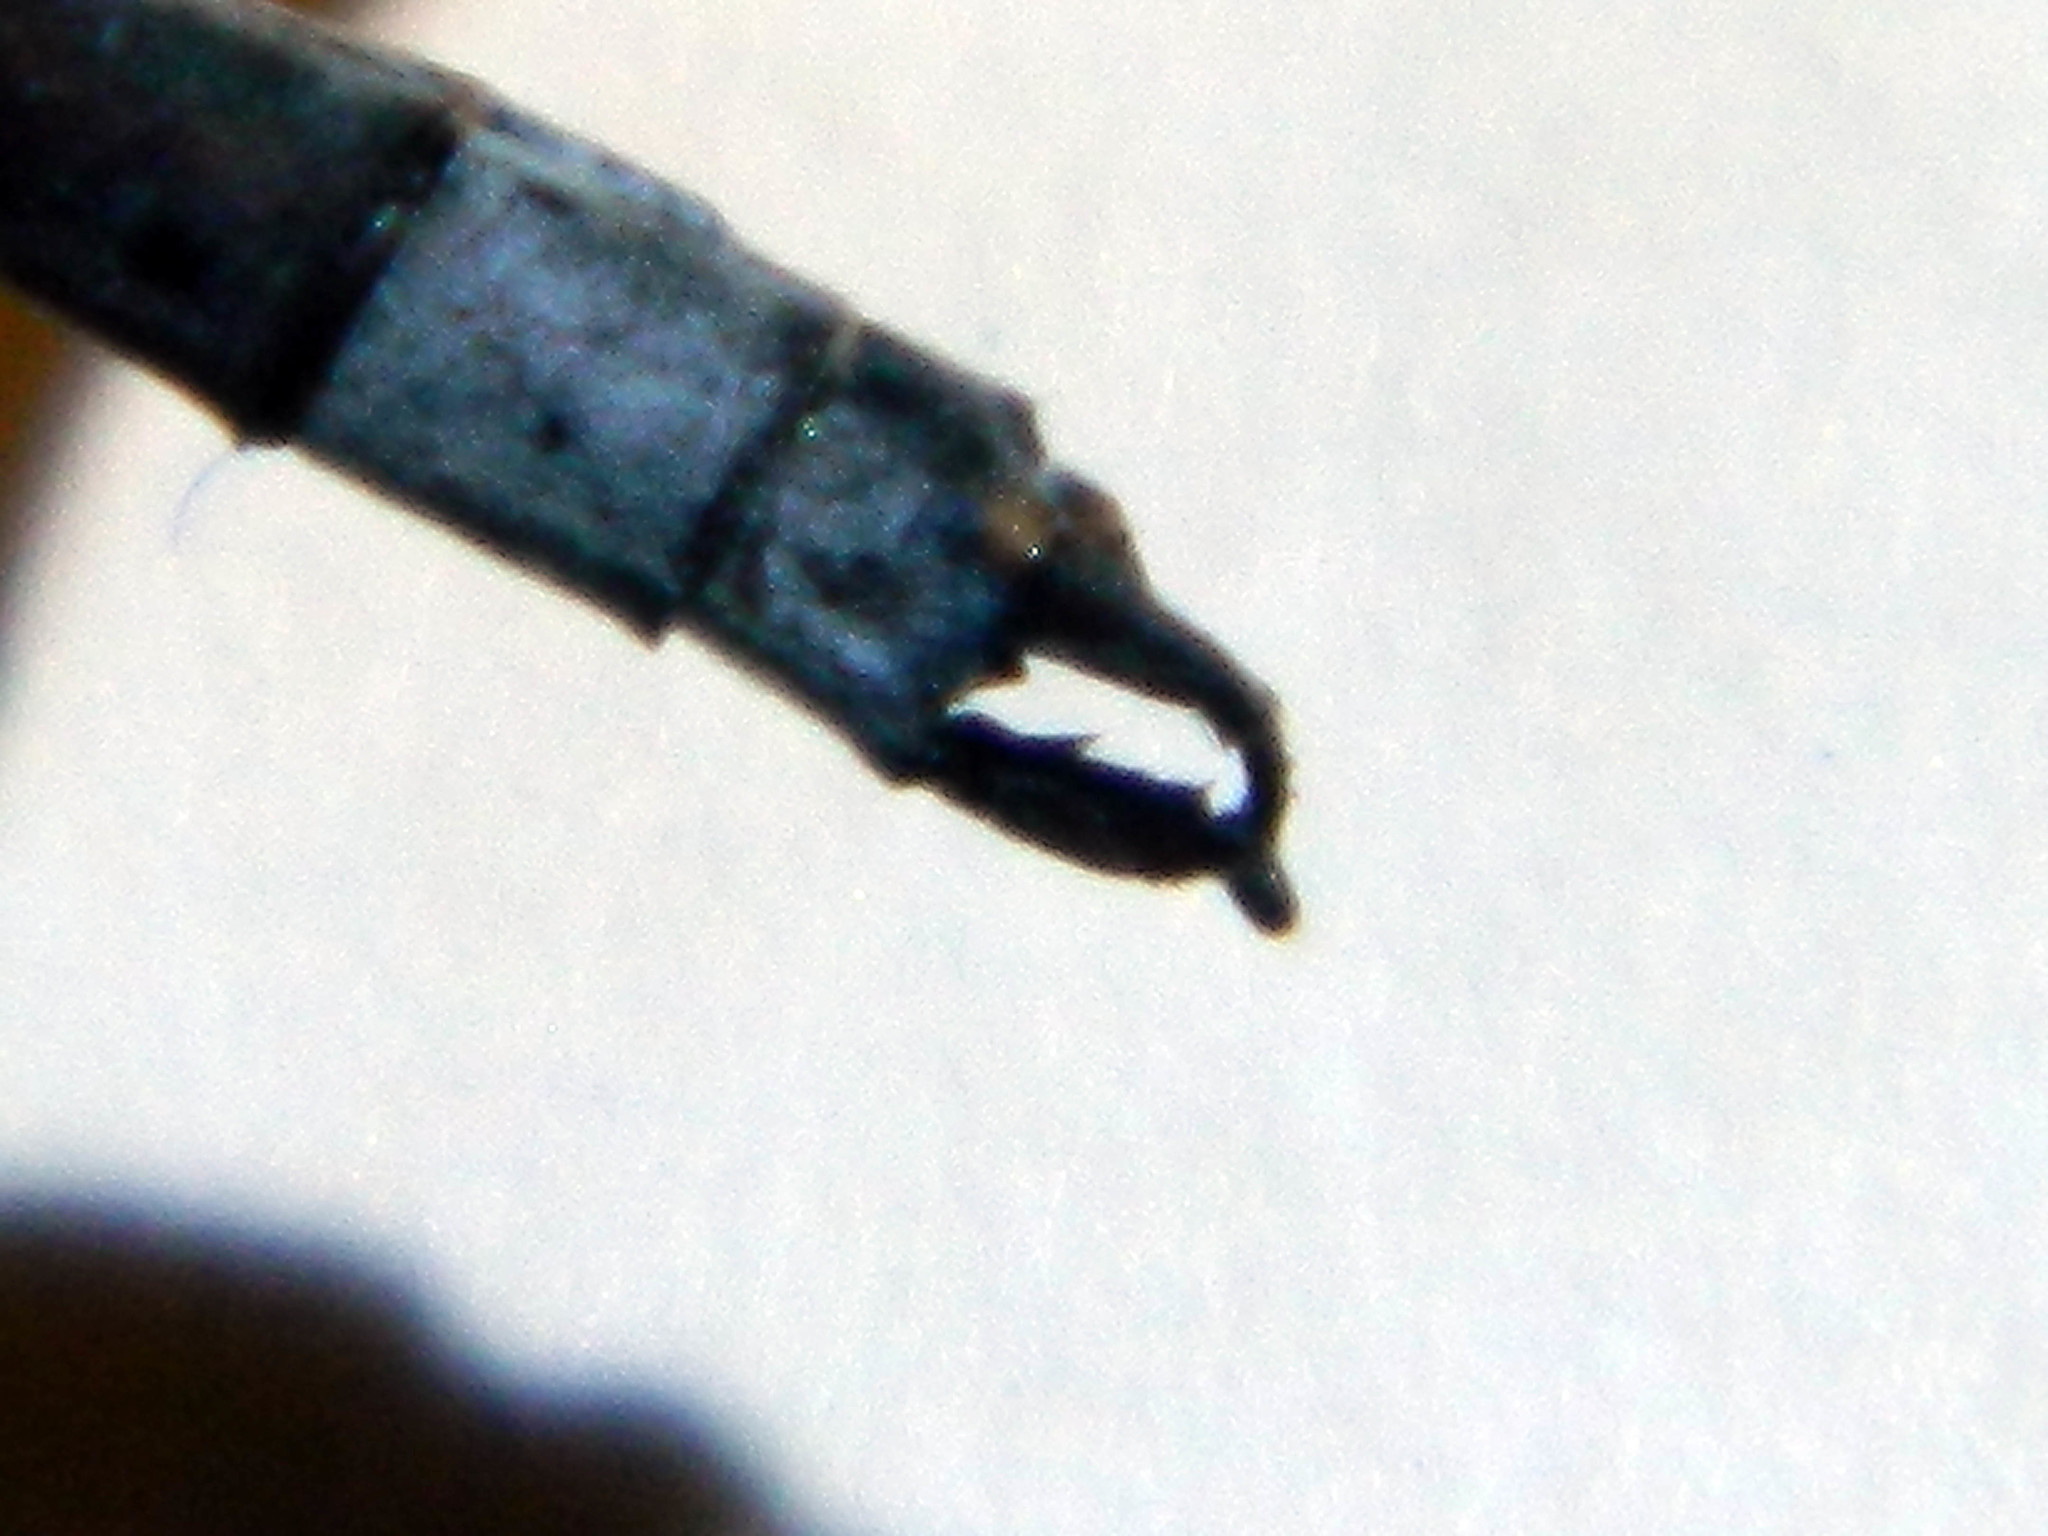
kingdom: Animalia
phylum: Arthropoda
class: Insecta
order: Odonata
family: Lestidae
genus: Lestes
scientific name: Lestes disjunctus
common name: Northern spreadwing
